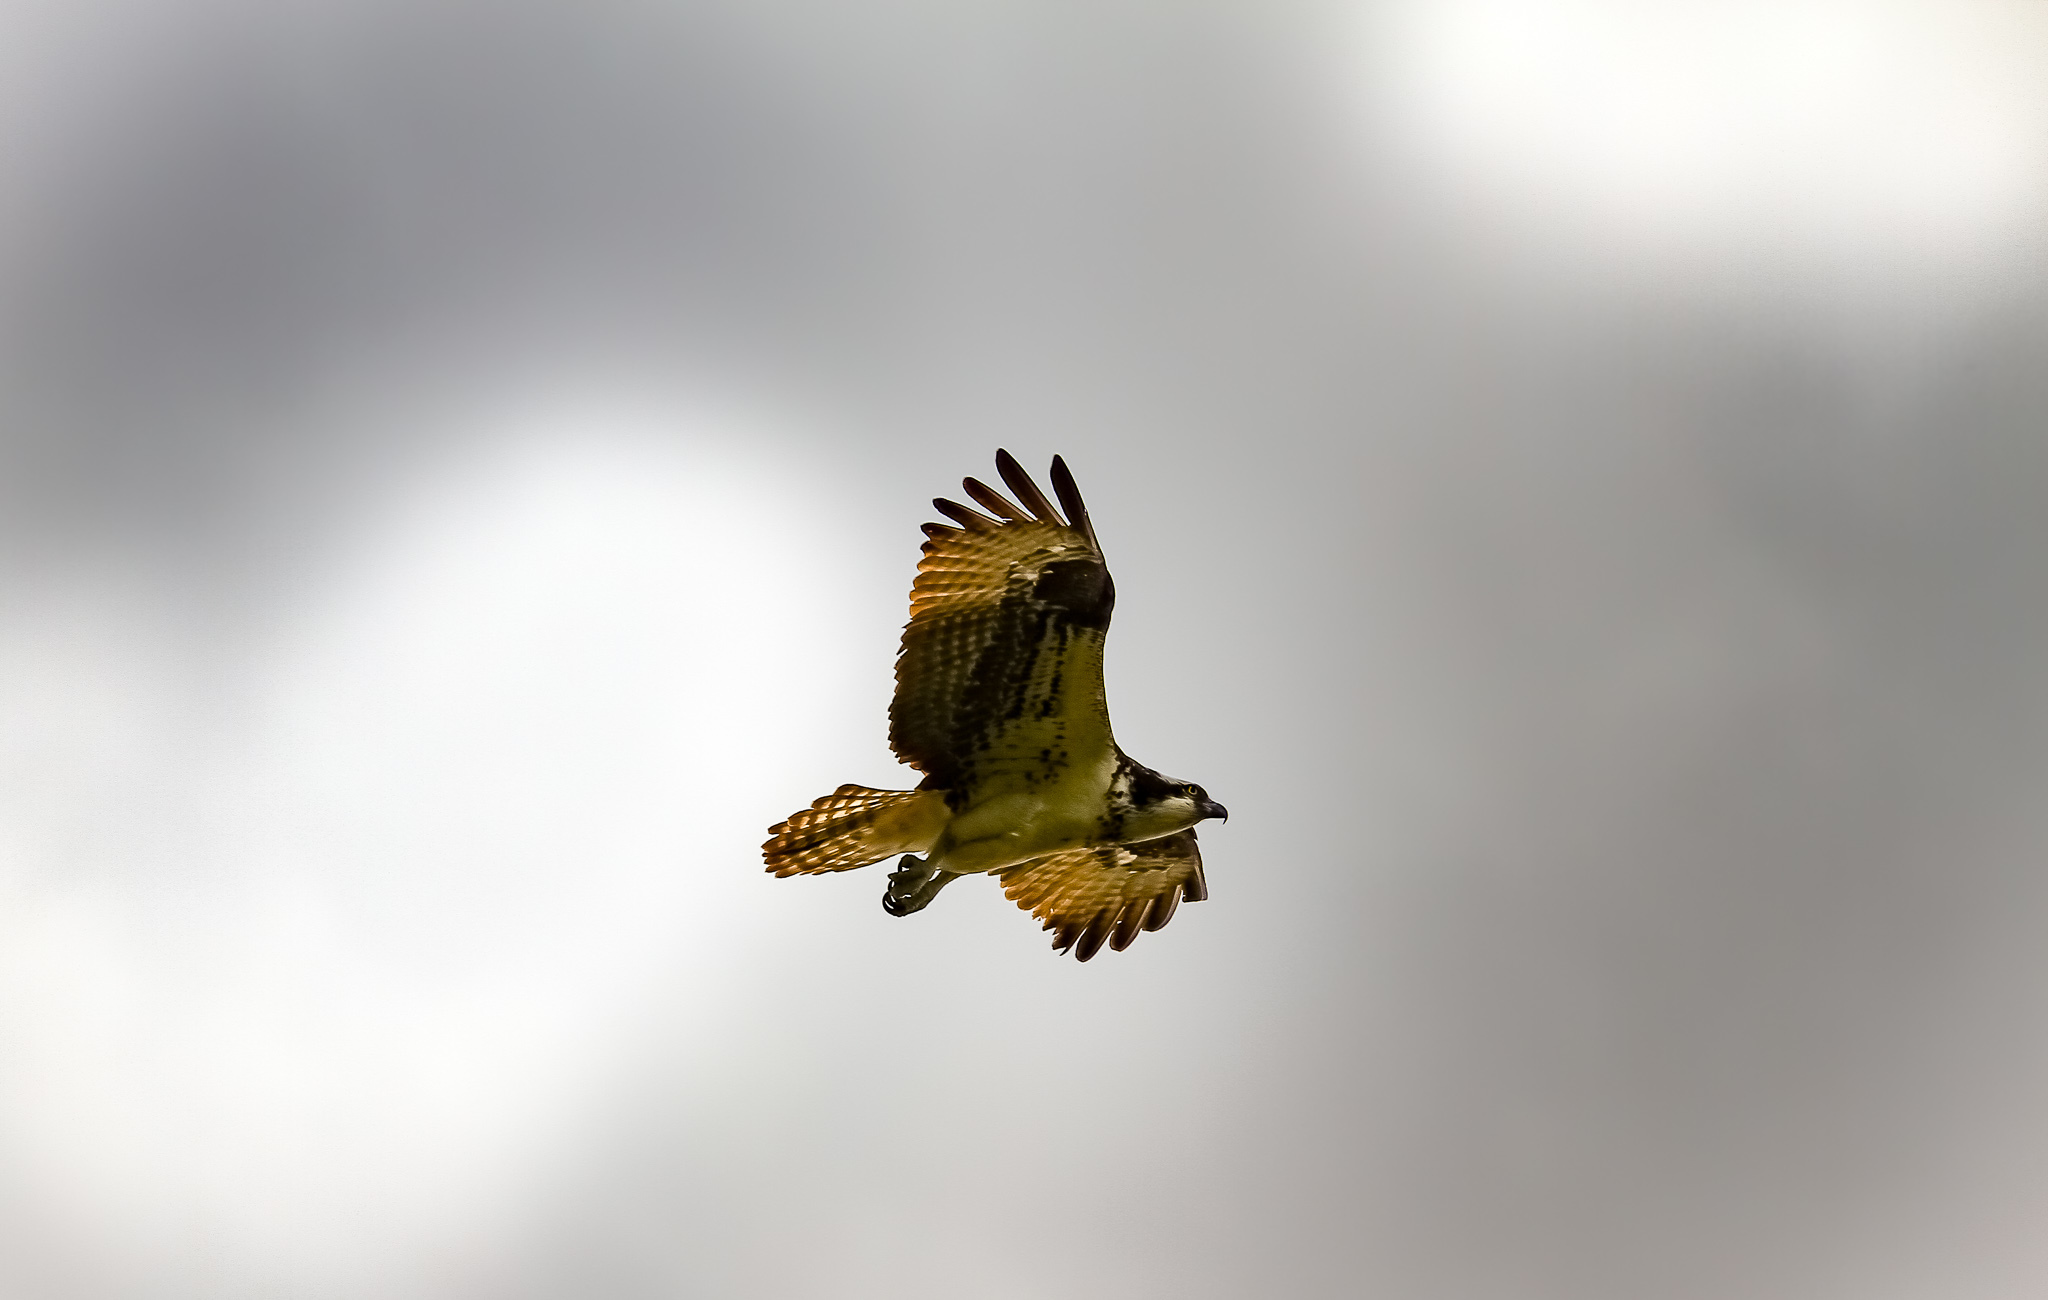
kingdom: Animalia
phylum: Chordata
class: Aves
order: Accipitriformes
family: Pandionidae
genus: Pandion
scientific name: Pandion haliaetus
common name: Osprey
